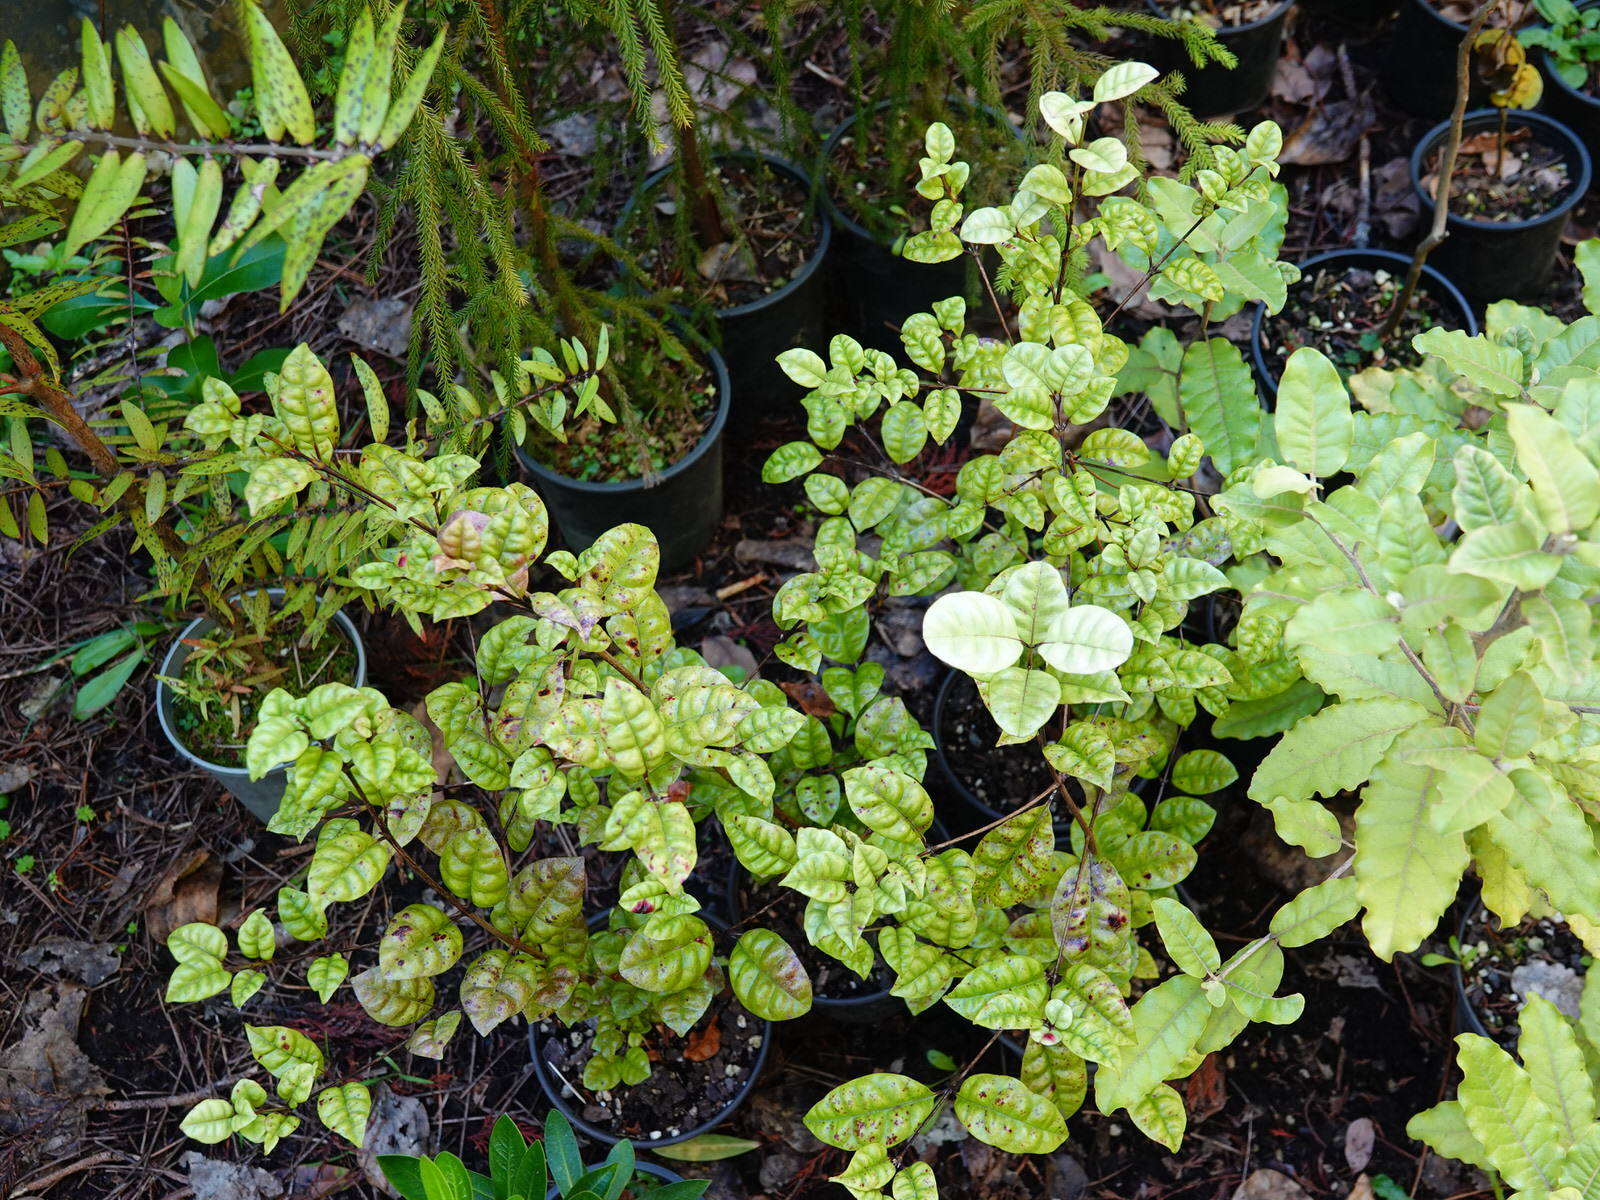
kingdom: Fungi
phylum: Basidiomycota
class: Pucciniomycetes
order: Pucciniales
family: Sphaerophragmiaceae
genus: Austropuccinia
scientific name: Austropuccinia psidii
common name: Myrtle rust
